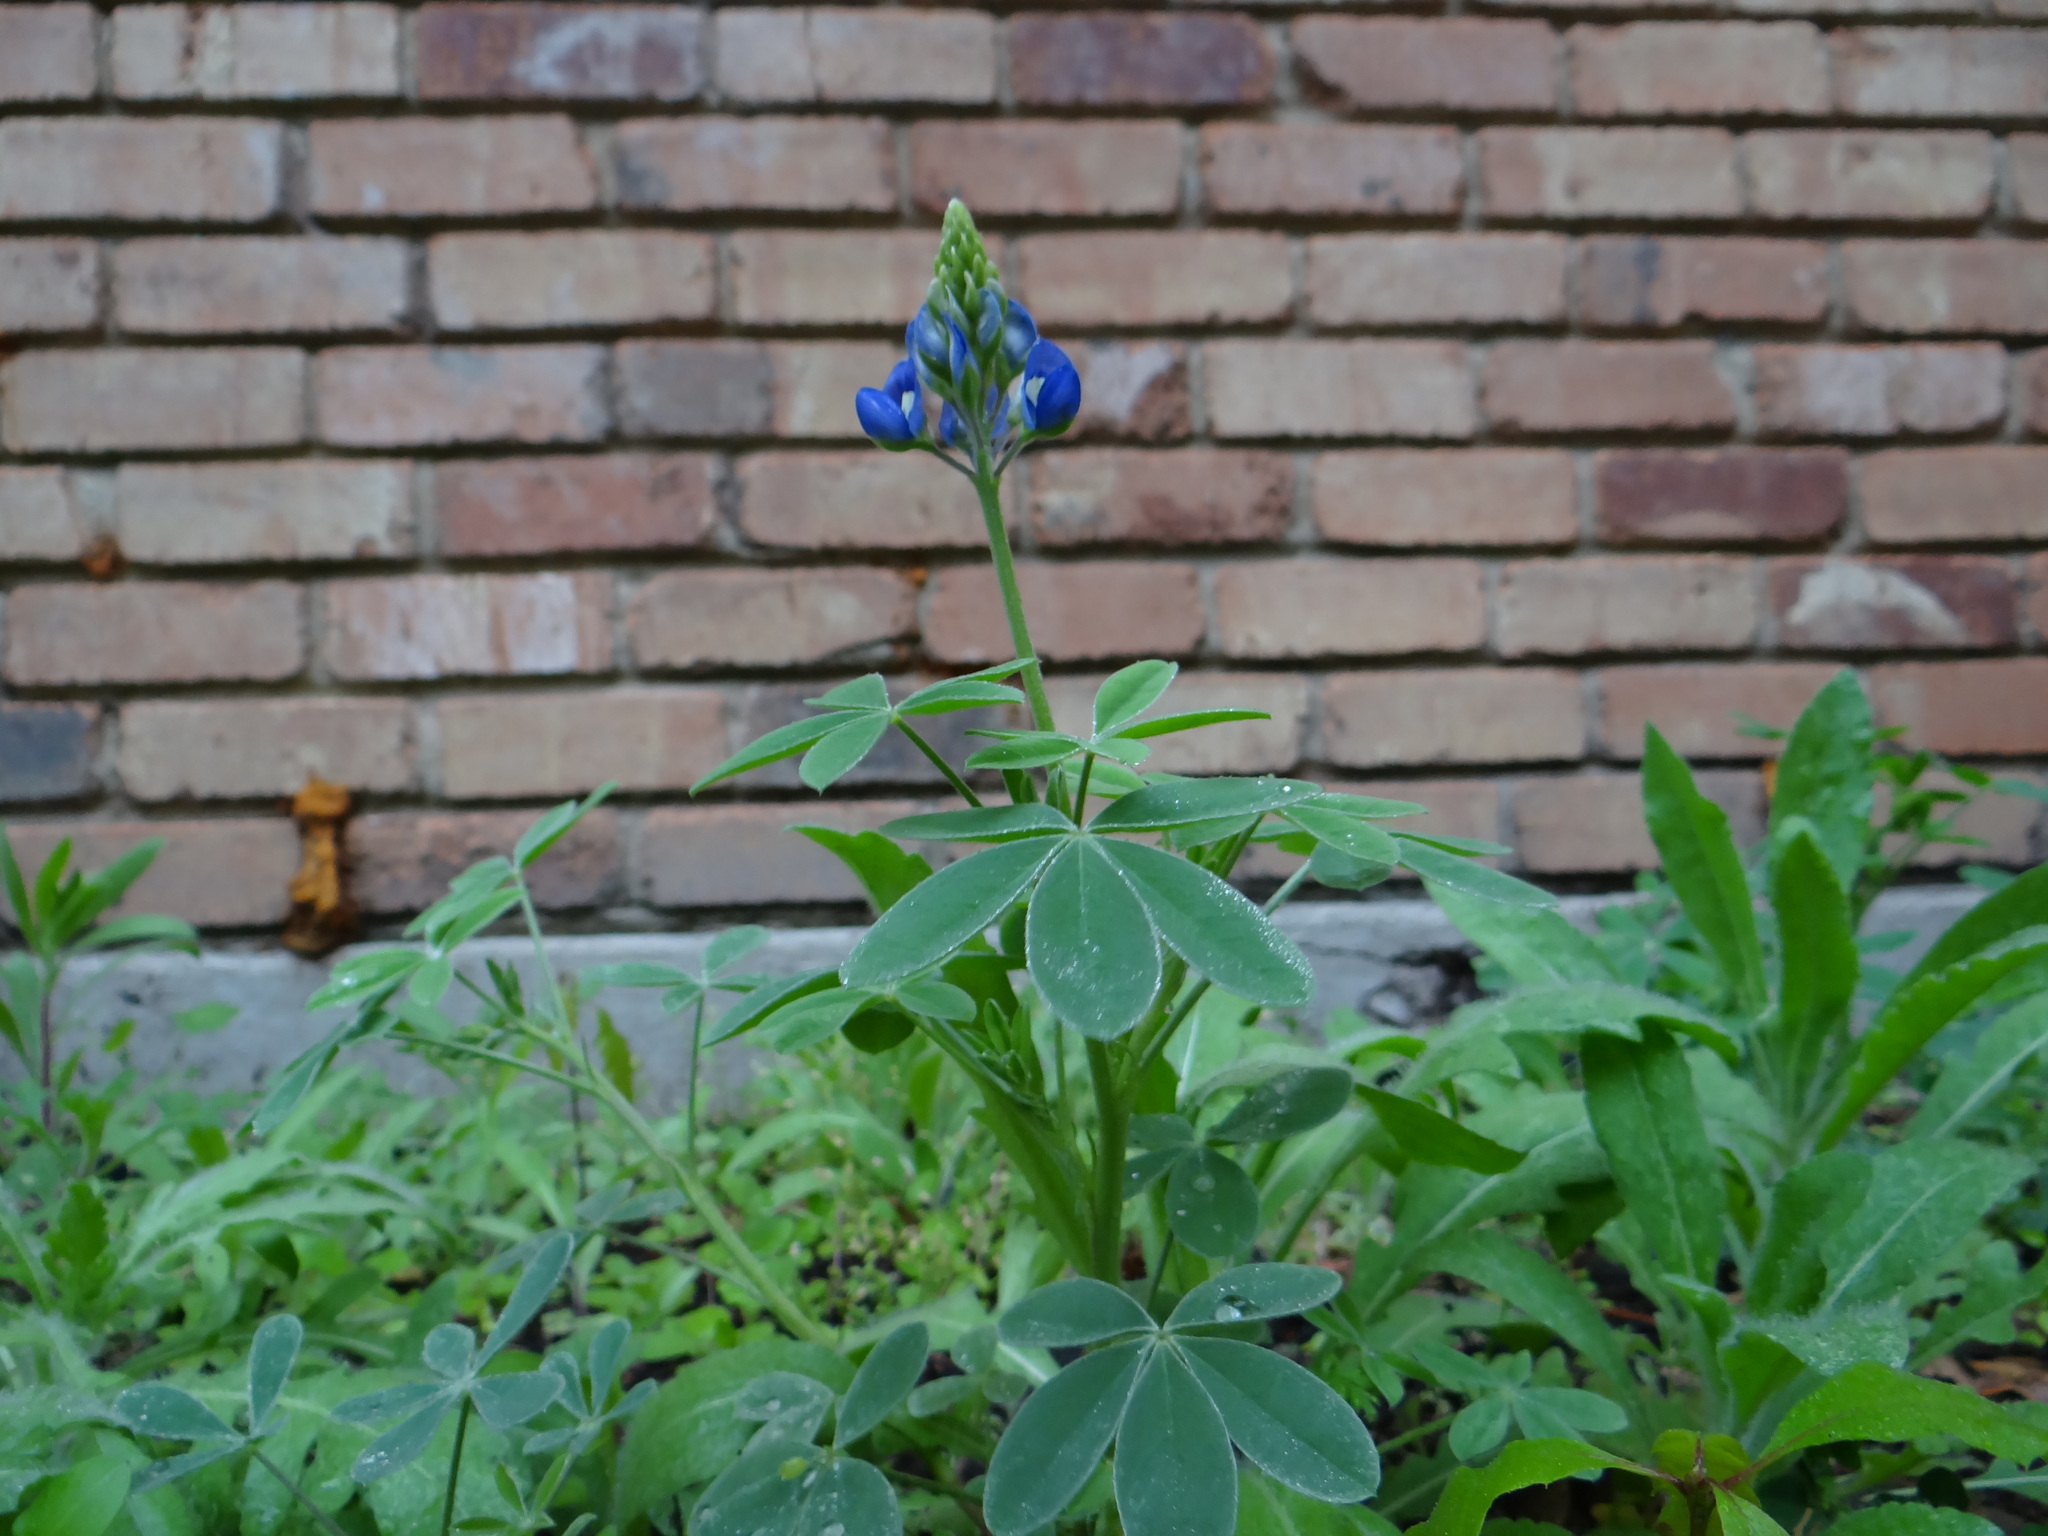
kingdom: Plantae
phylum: Tracheophyta
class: Magnoliopsida
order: Fabales
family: Fabaceae
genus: Lupinus
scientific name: Lupinus texensis
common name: Texas bluebonnet
